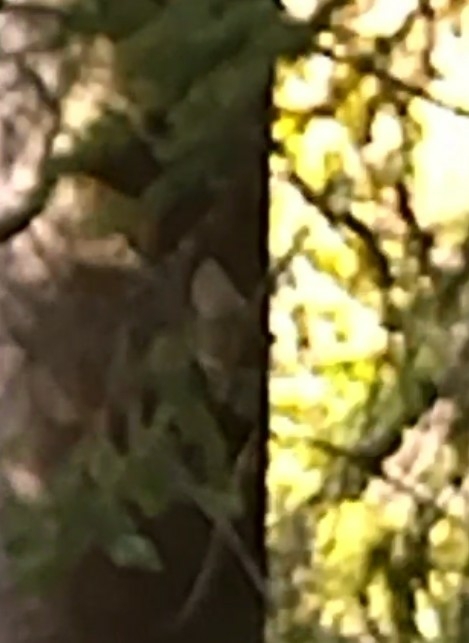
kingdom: Animalia
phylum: Chordata
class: Aves
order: Passeriformes
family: Regulidae
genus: Regulus
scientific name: Regulus regulus
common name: Goldcrest
